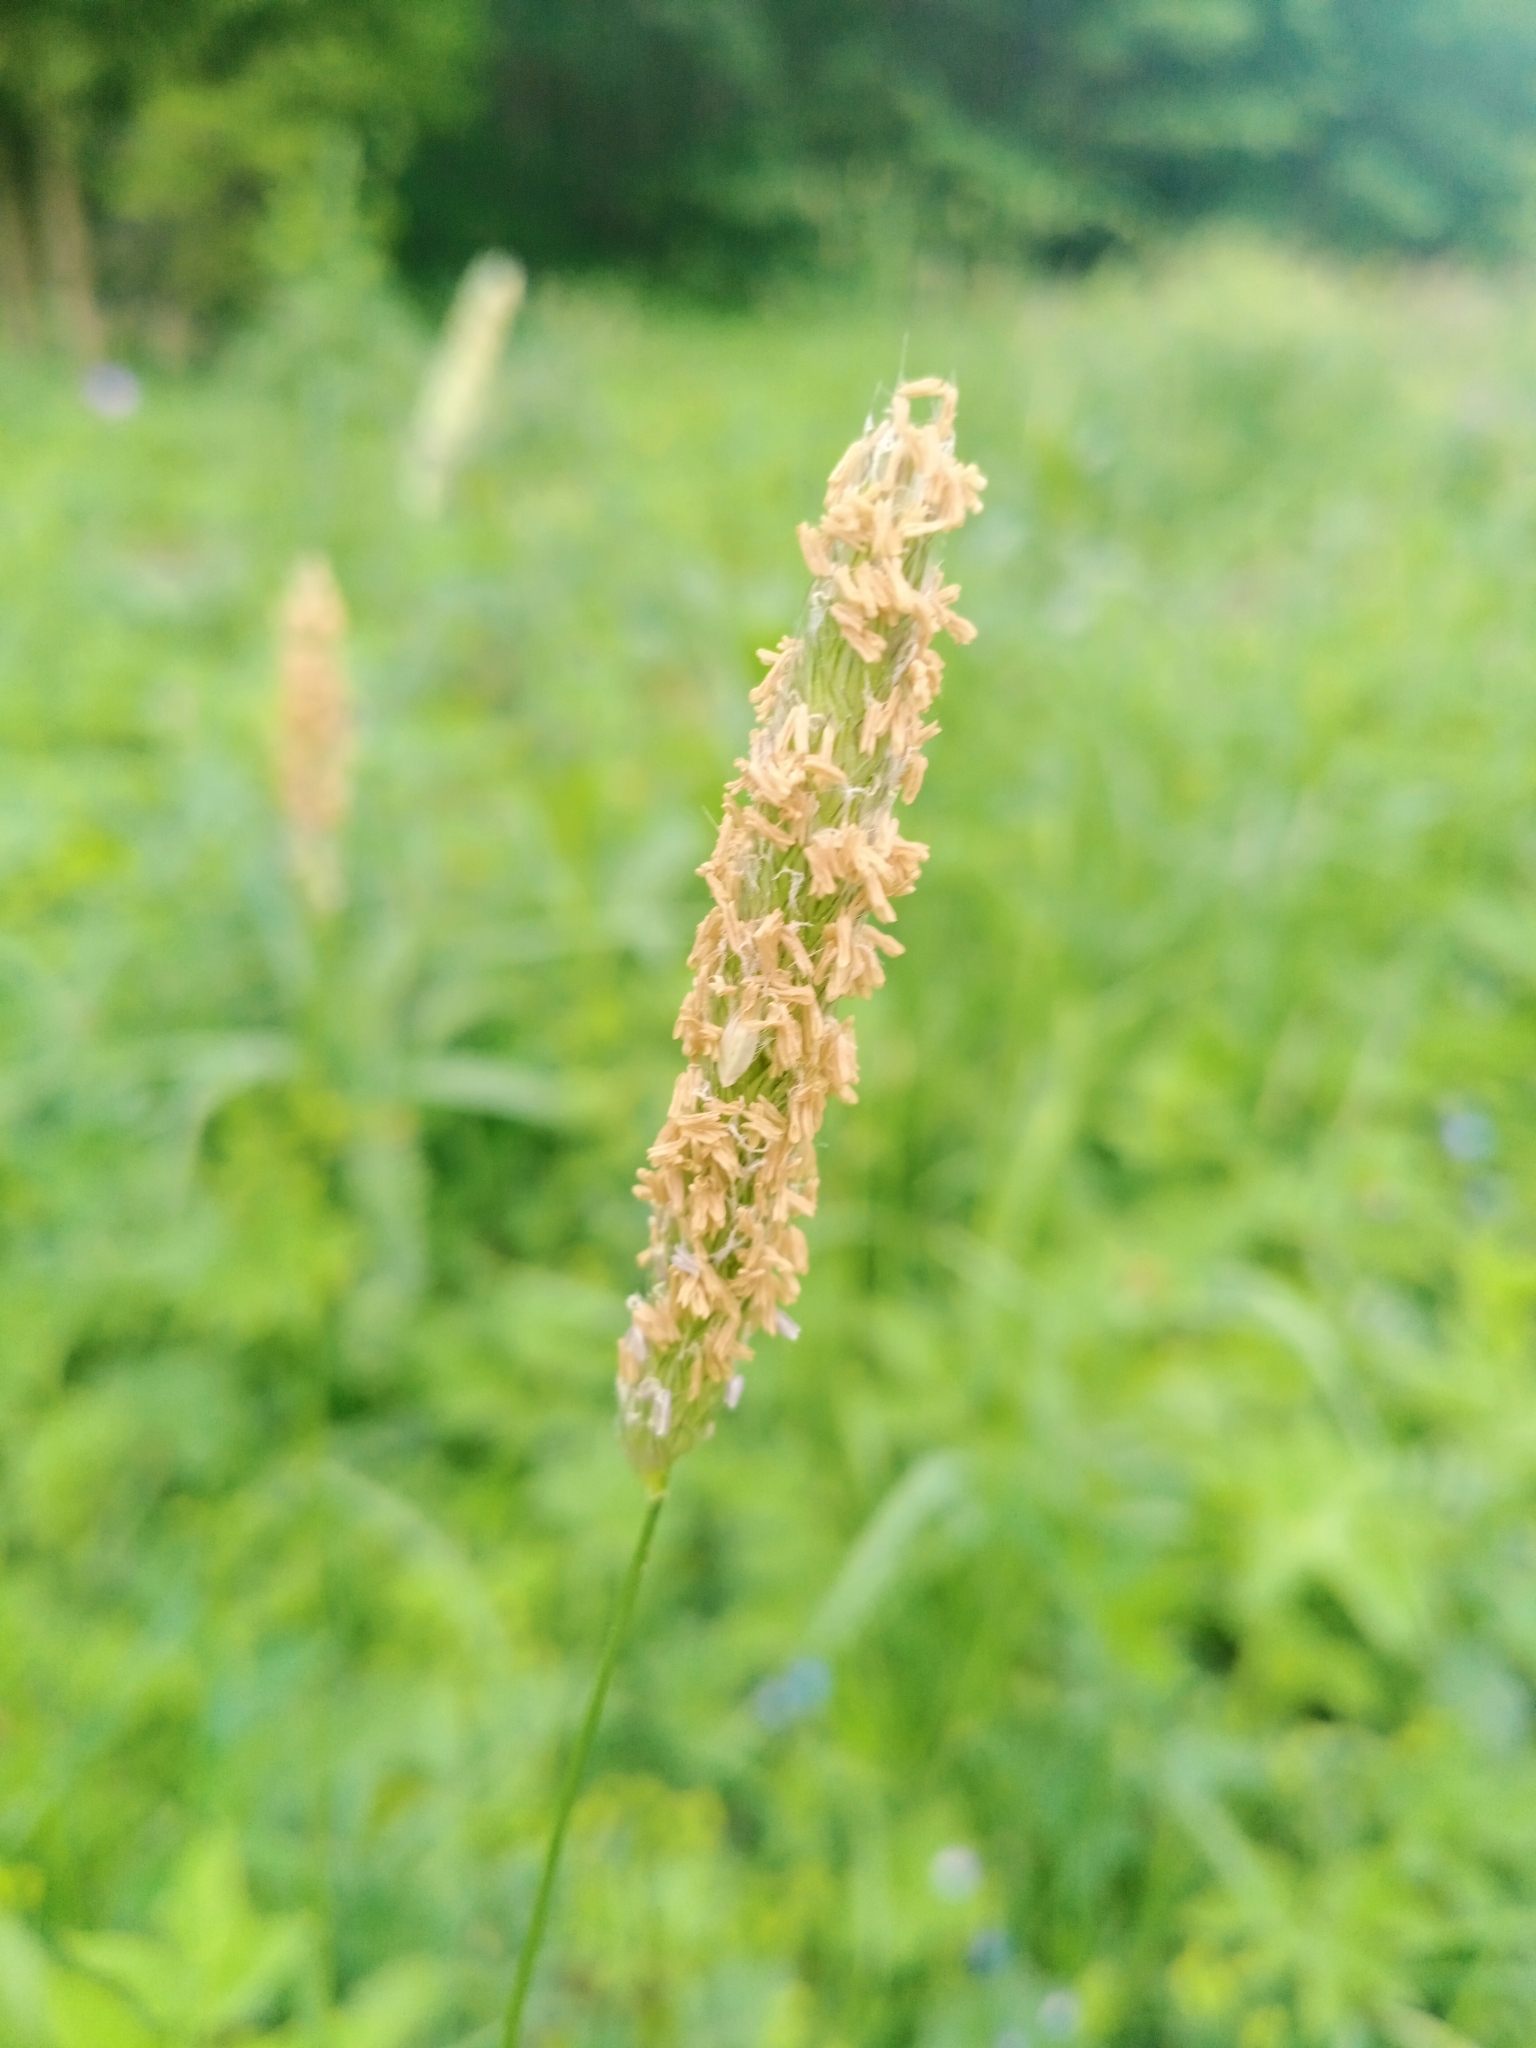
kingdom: Plantae
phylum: Tracheophyta
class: Liliopsida
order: Poales
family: Poaceae
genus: Alopecurus
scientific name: Alopecurus pratensis
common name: Meadow foxtail
